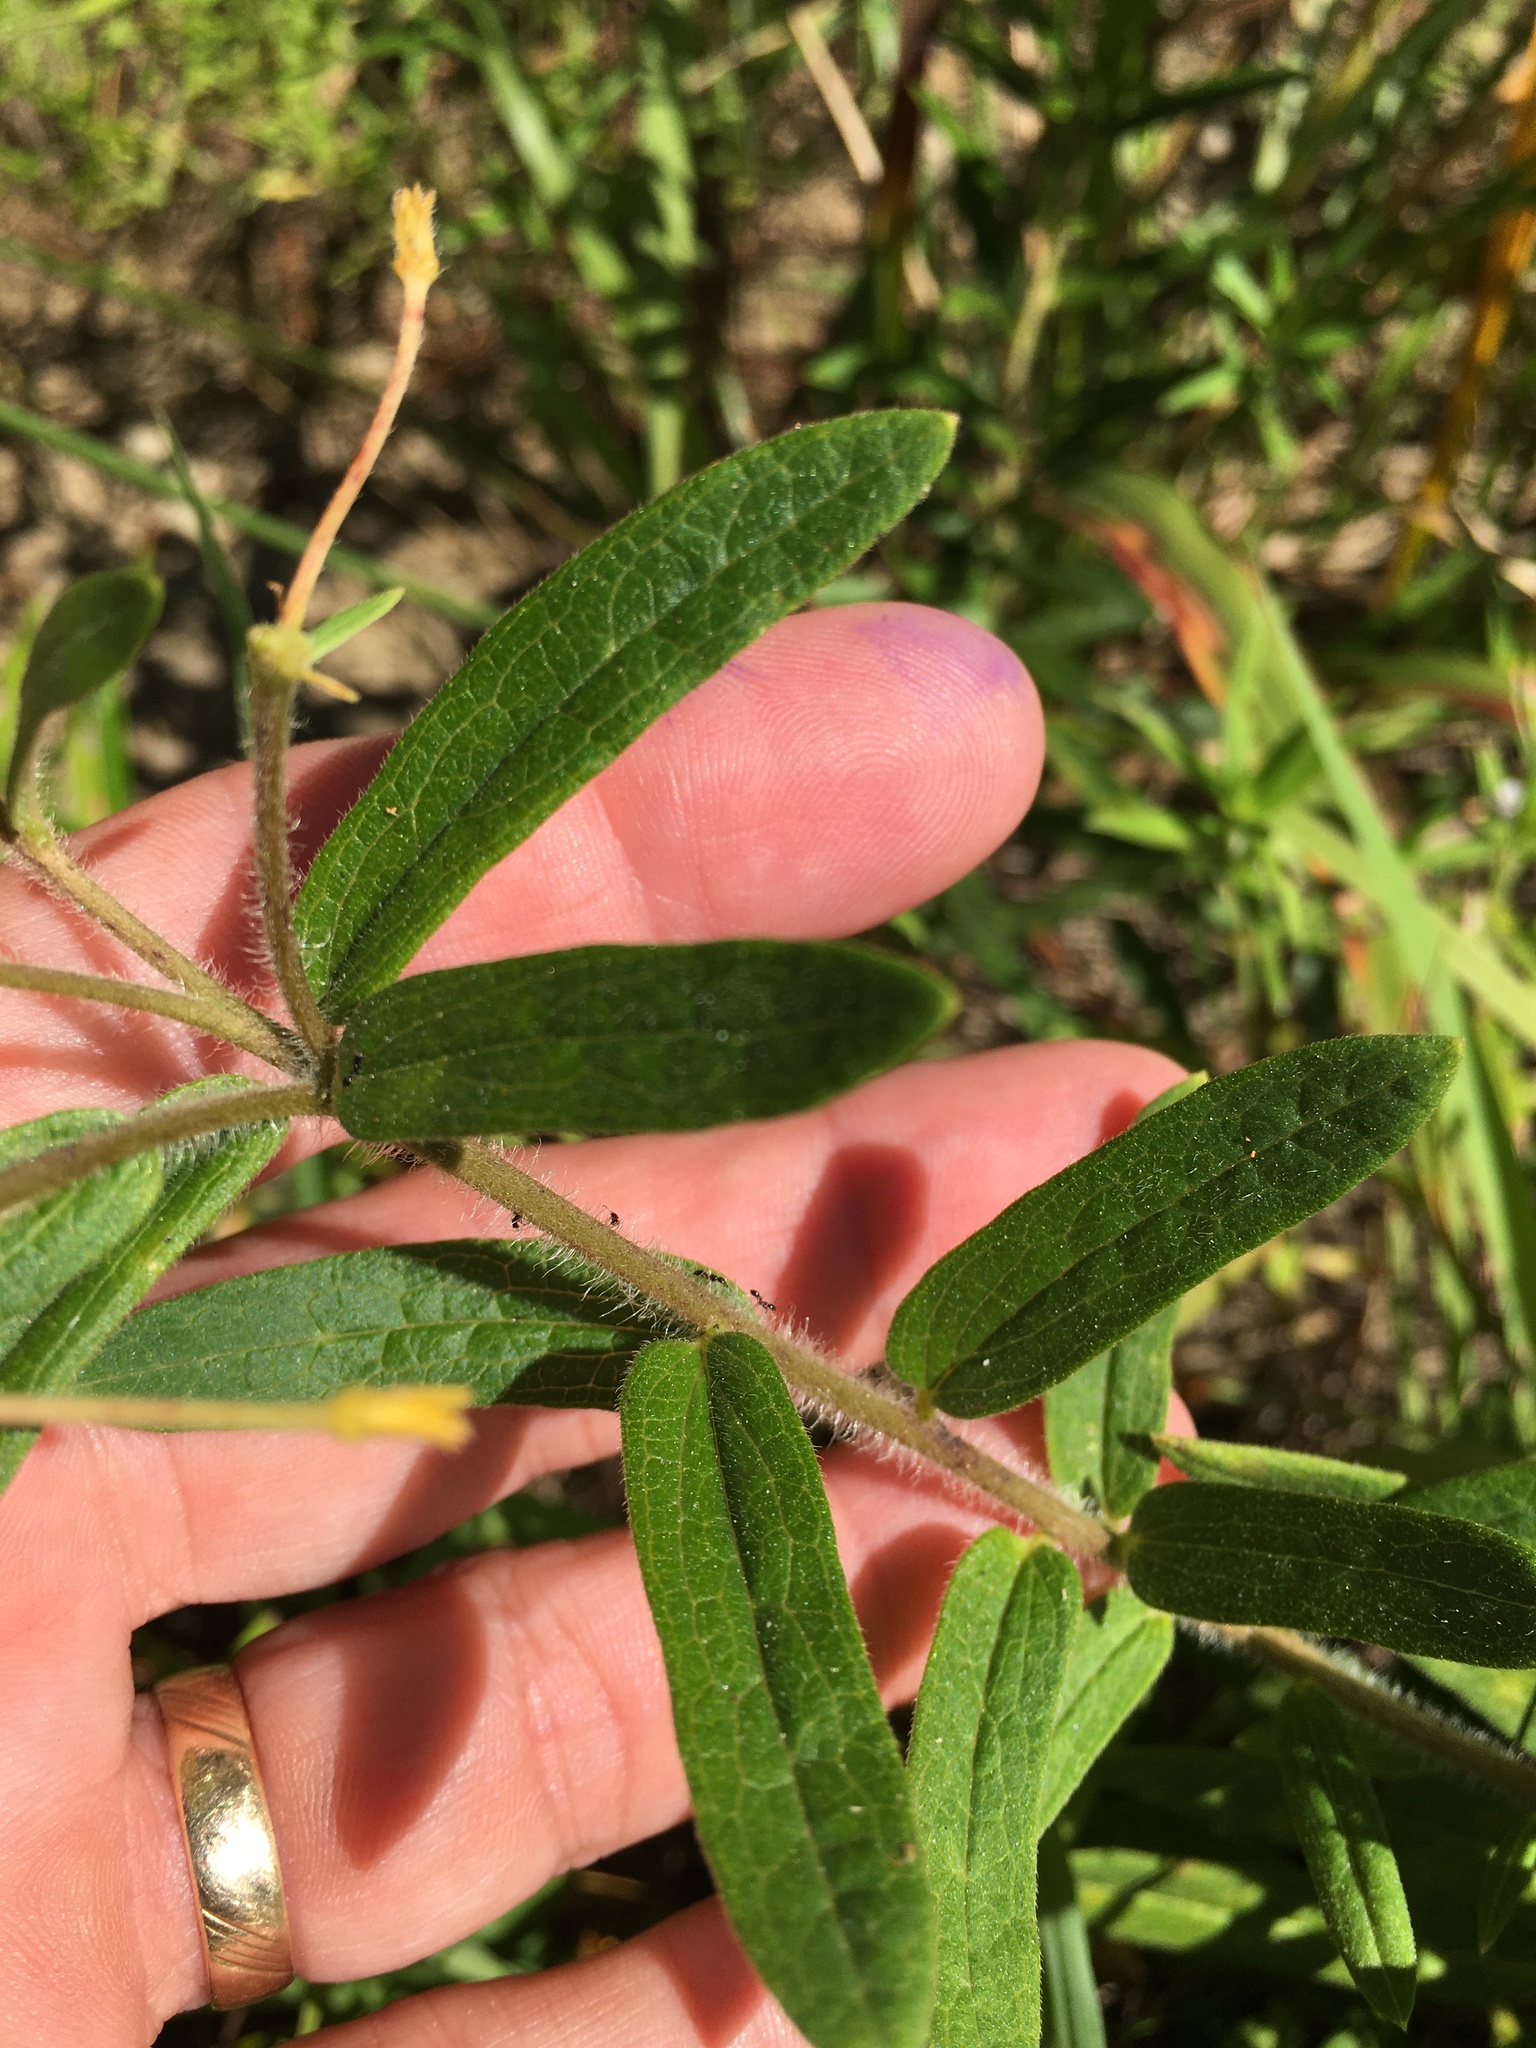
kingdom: Plantae
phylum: Tracheophyta
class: Magnoliopsida
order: Gentianales
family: Apocynaceae
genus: Asclepias
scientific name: Asclepias tuberosa
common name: Butterfly milkweed
